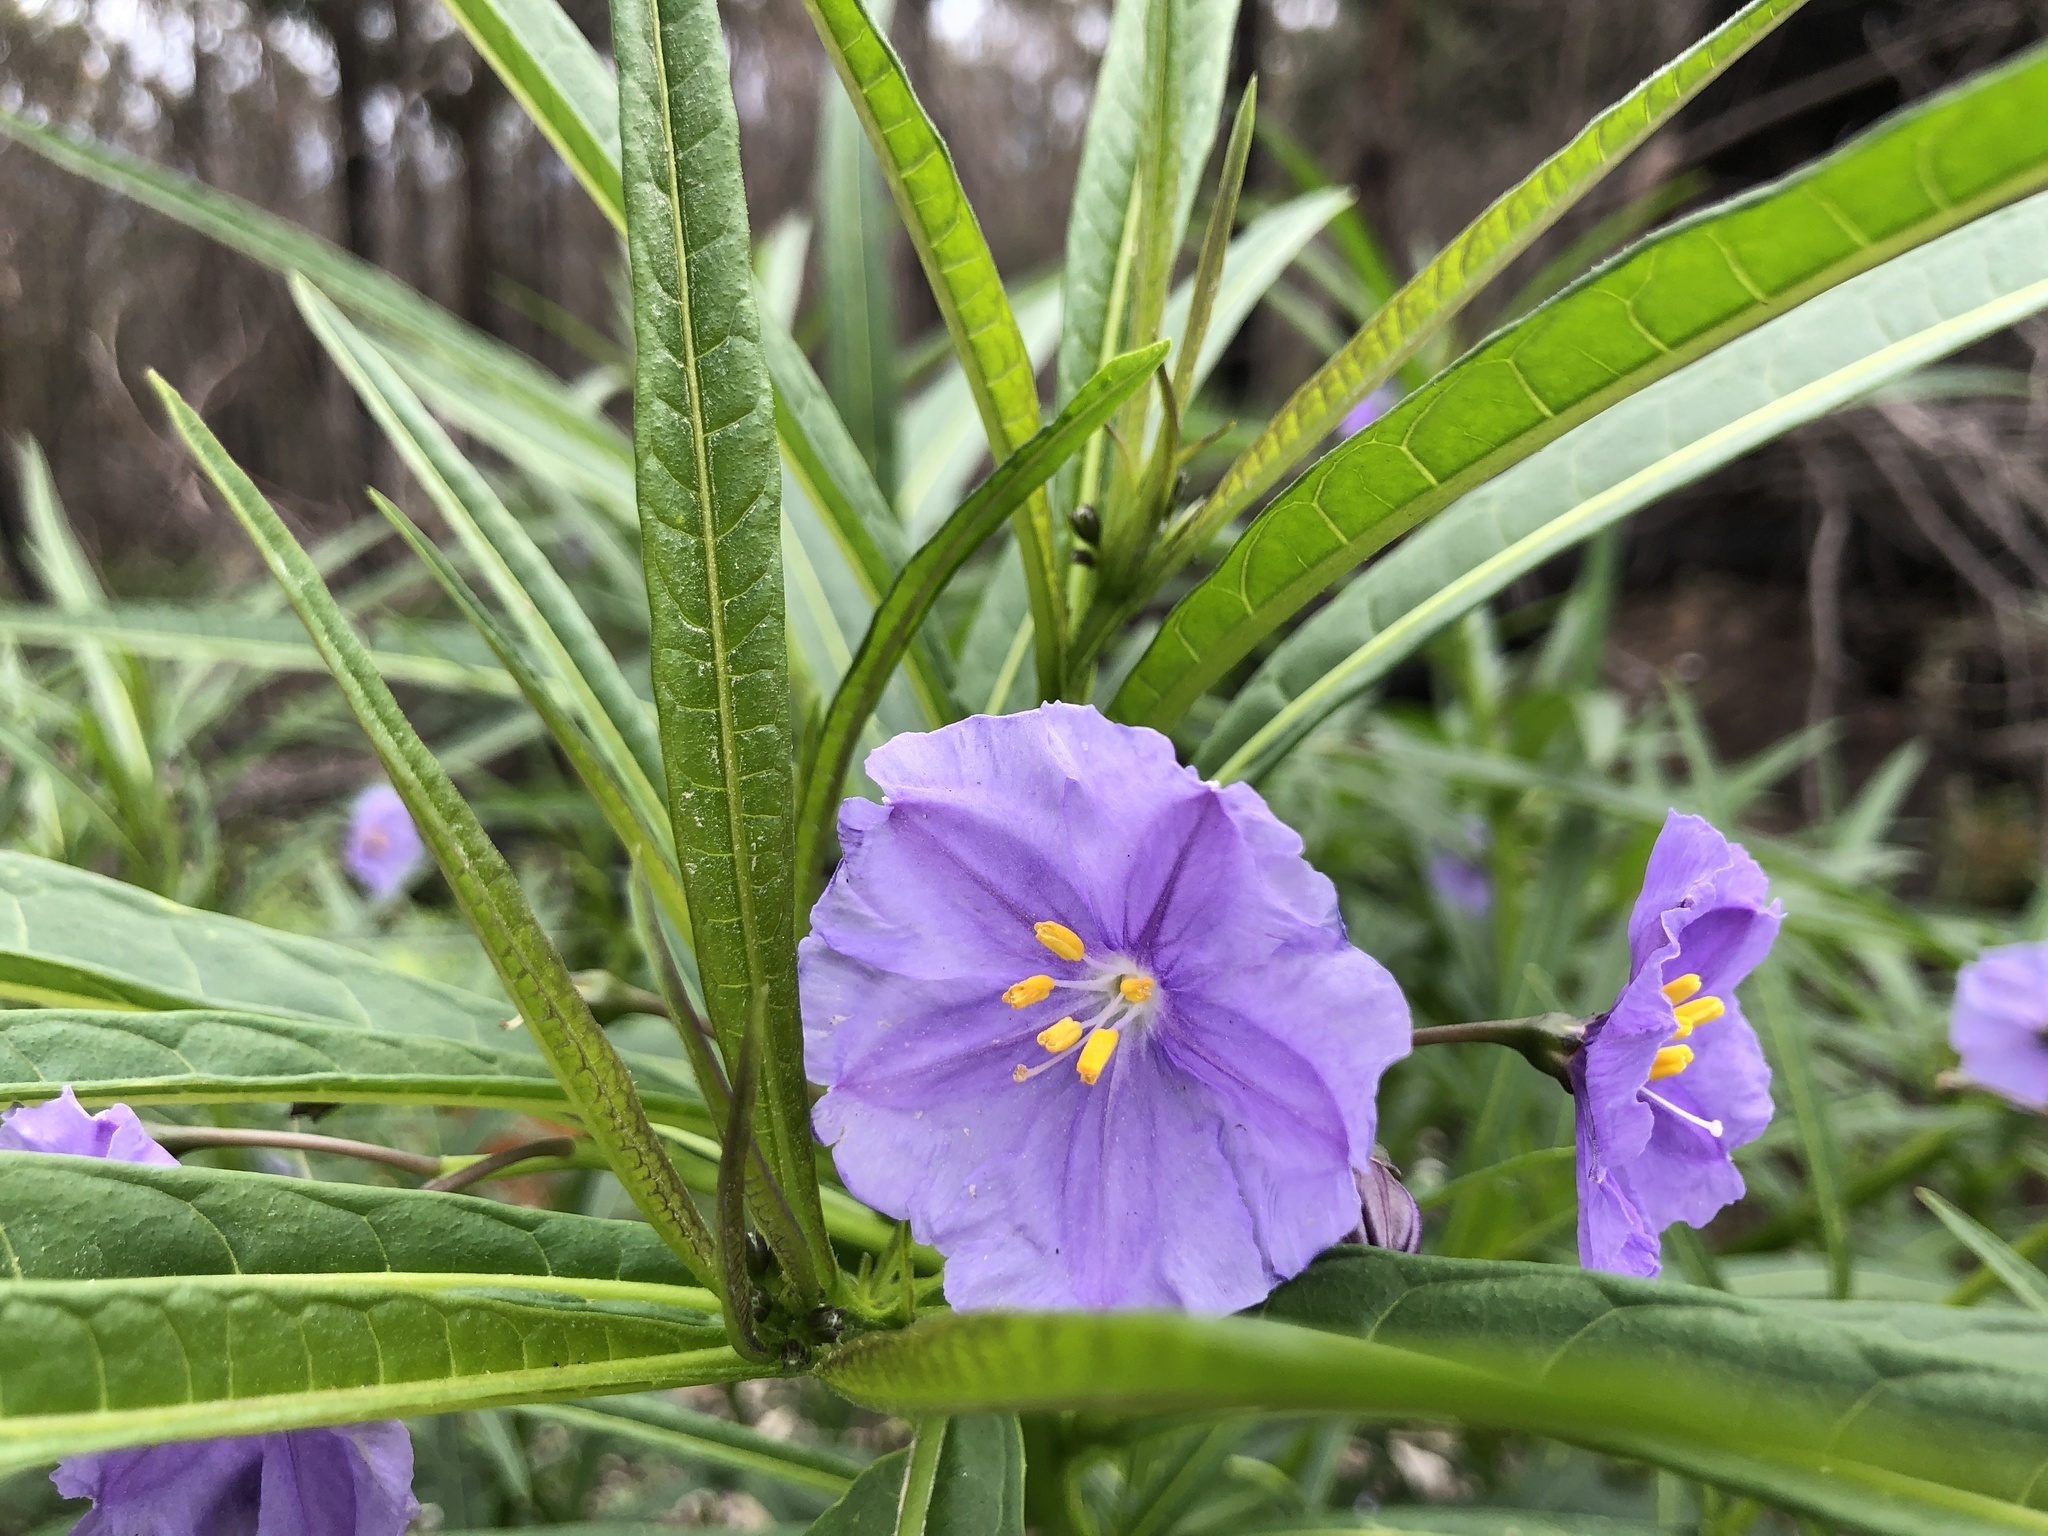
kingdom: Plantae
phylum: Tracheophyta
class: Magnoliopsida
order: Solanales
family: Solanaceae
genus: Solanum
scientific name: Solanum vescum
